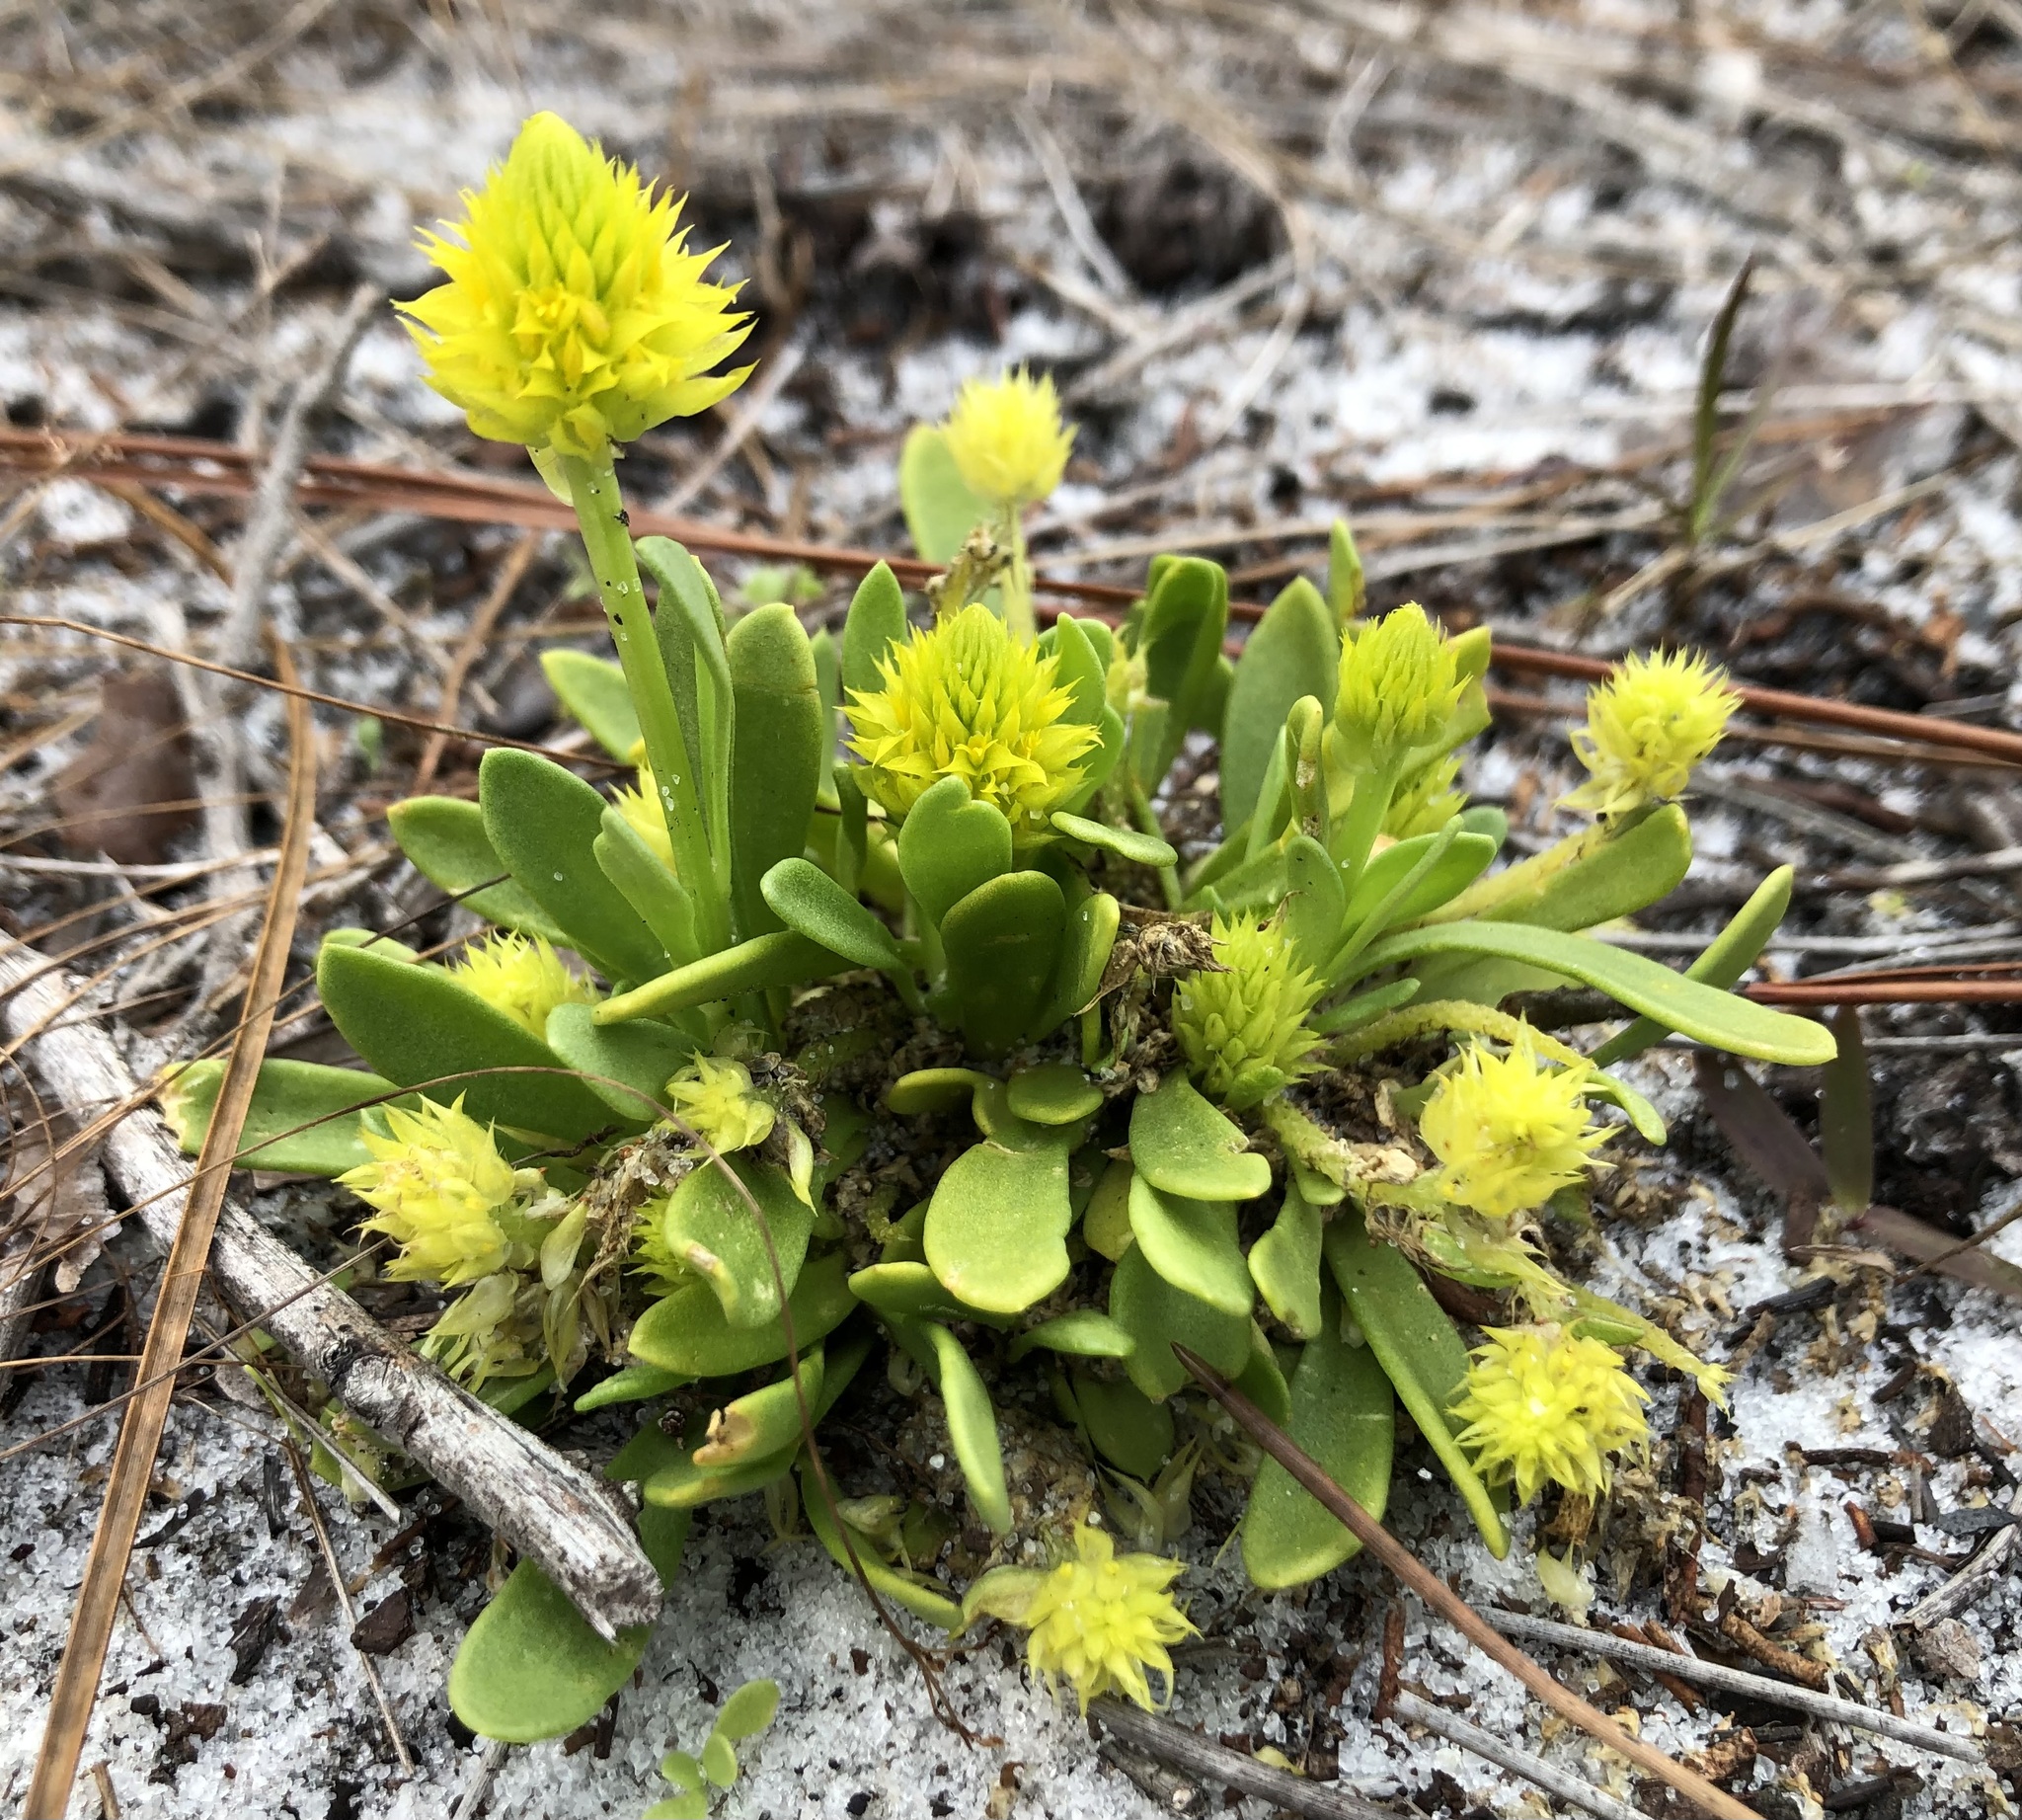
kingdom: Plantae
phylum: Tracheophyta
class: Magnoliopsida
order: Fabales
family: Polygalaceae
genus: Polygala
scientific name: Polygala nana
